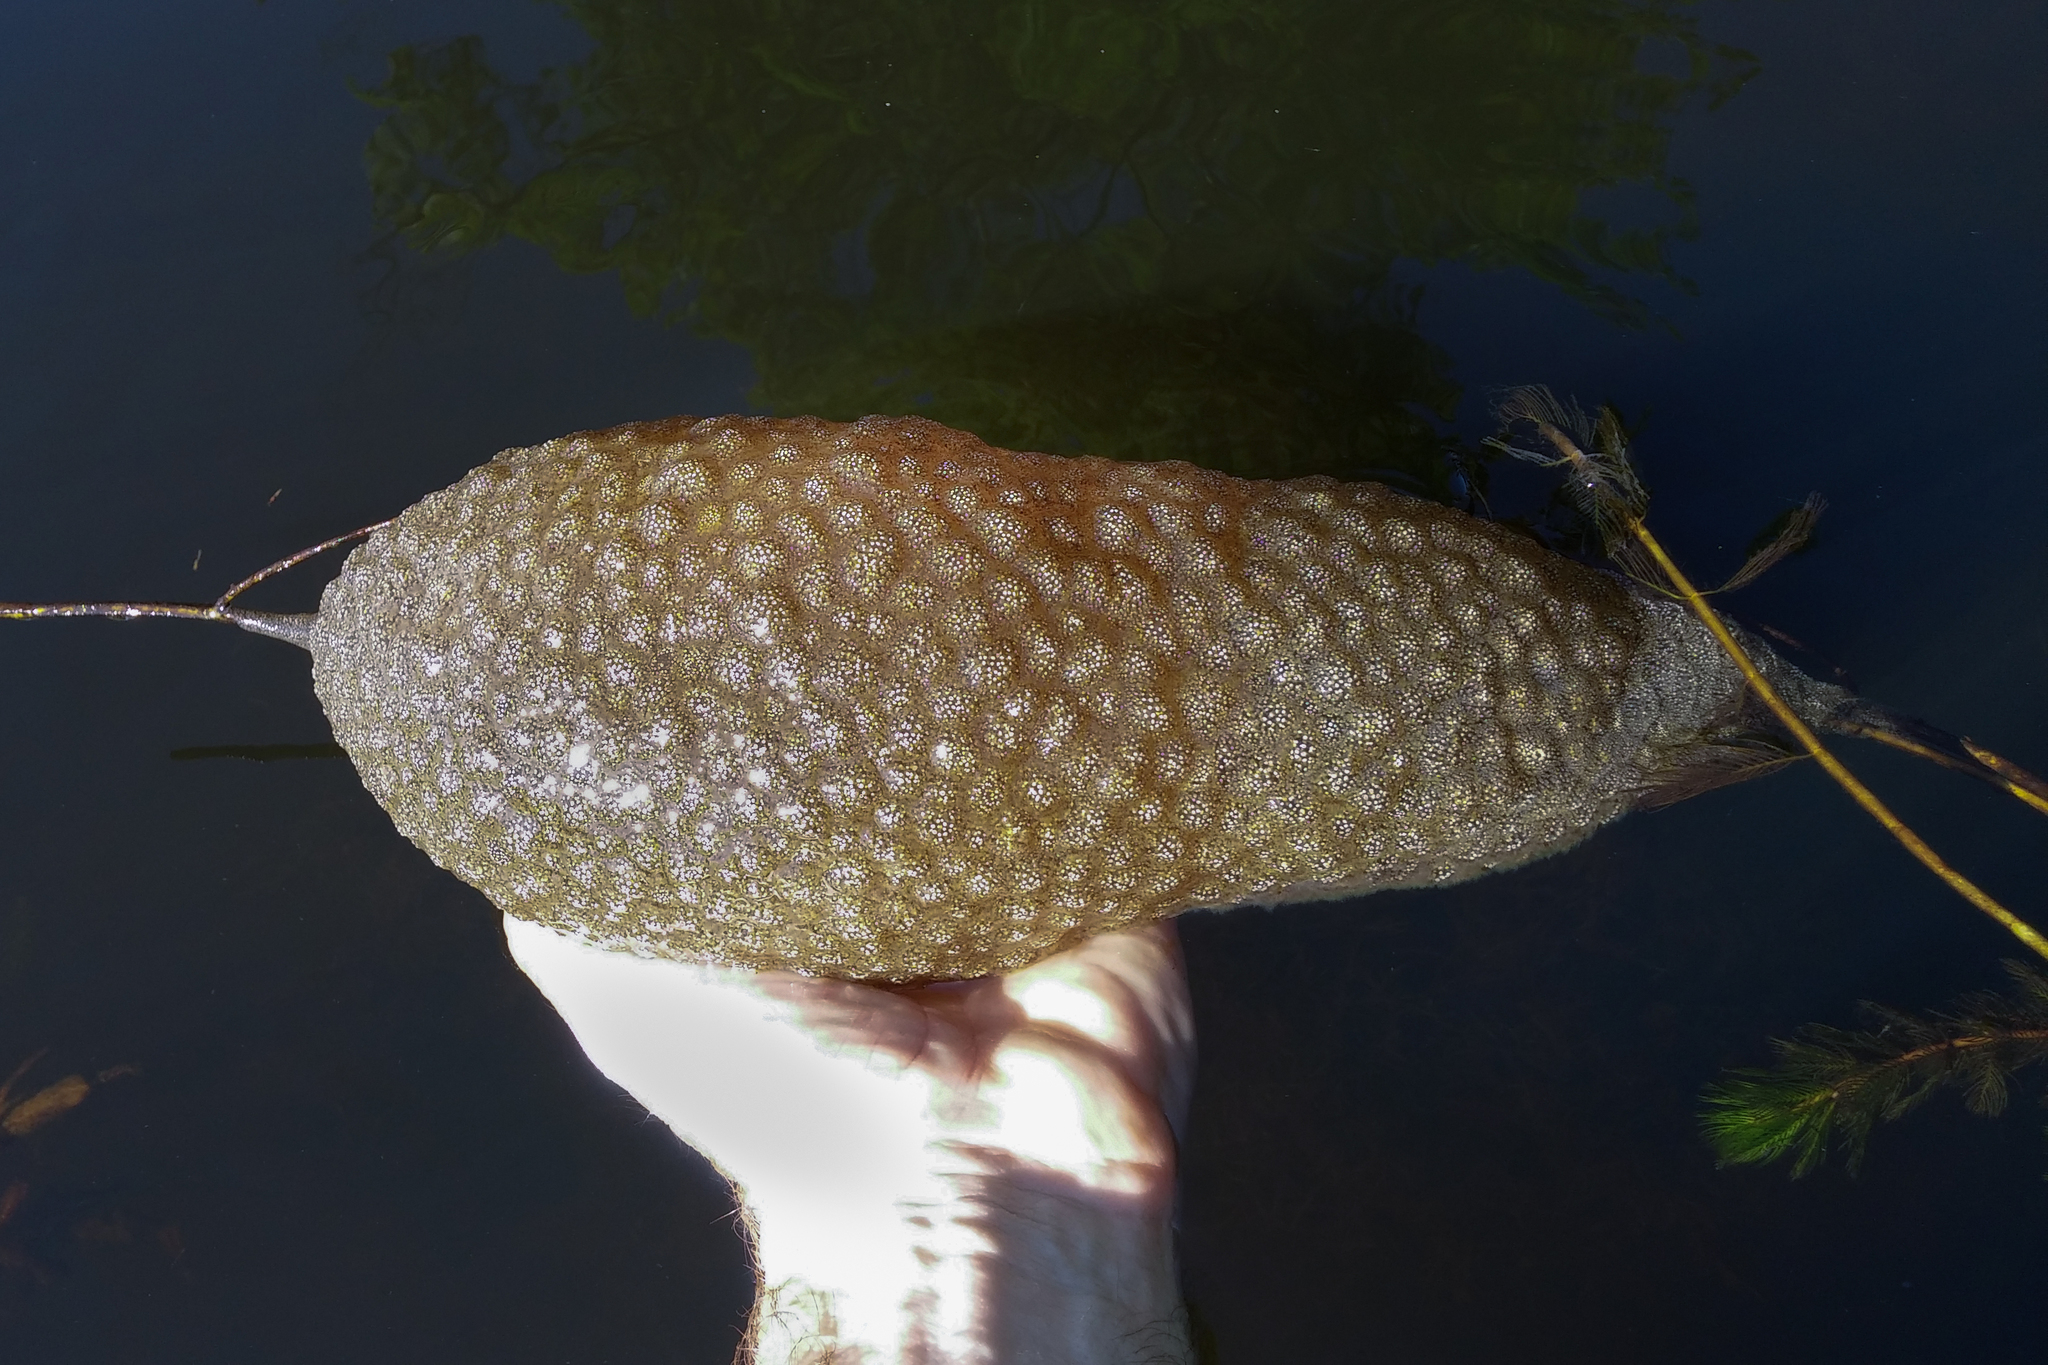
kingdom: Animalia
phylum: Bryozoa
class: Phylactolaemata
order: Plumatellida
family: Pectinatellidae
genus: Pectinatella
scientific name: Pectinatella magnifica
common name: Magnificent bryozoan
